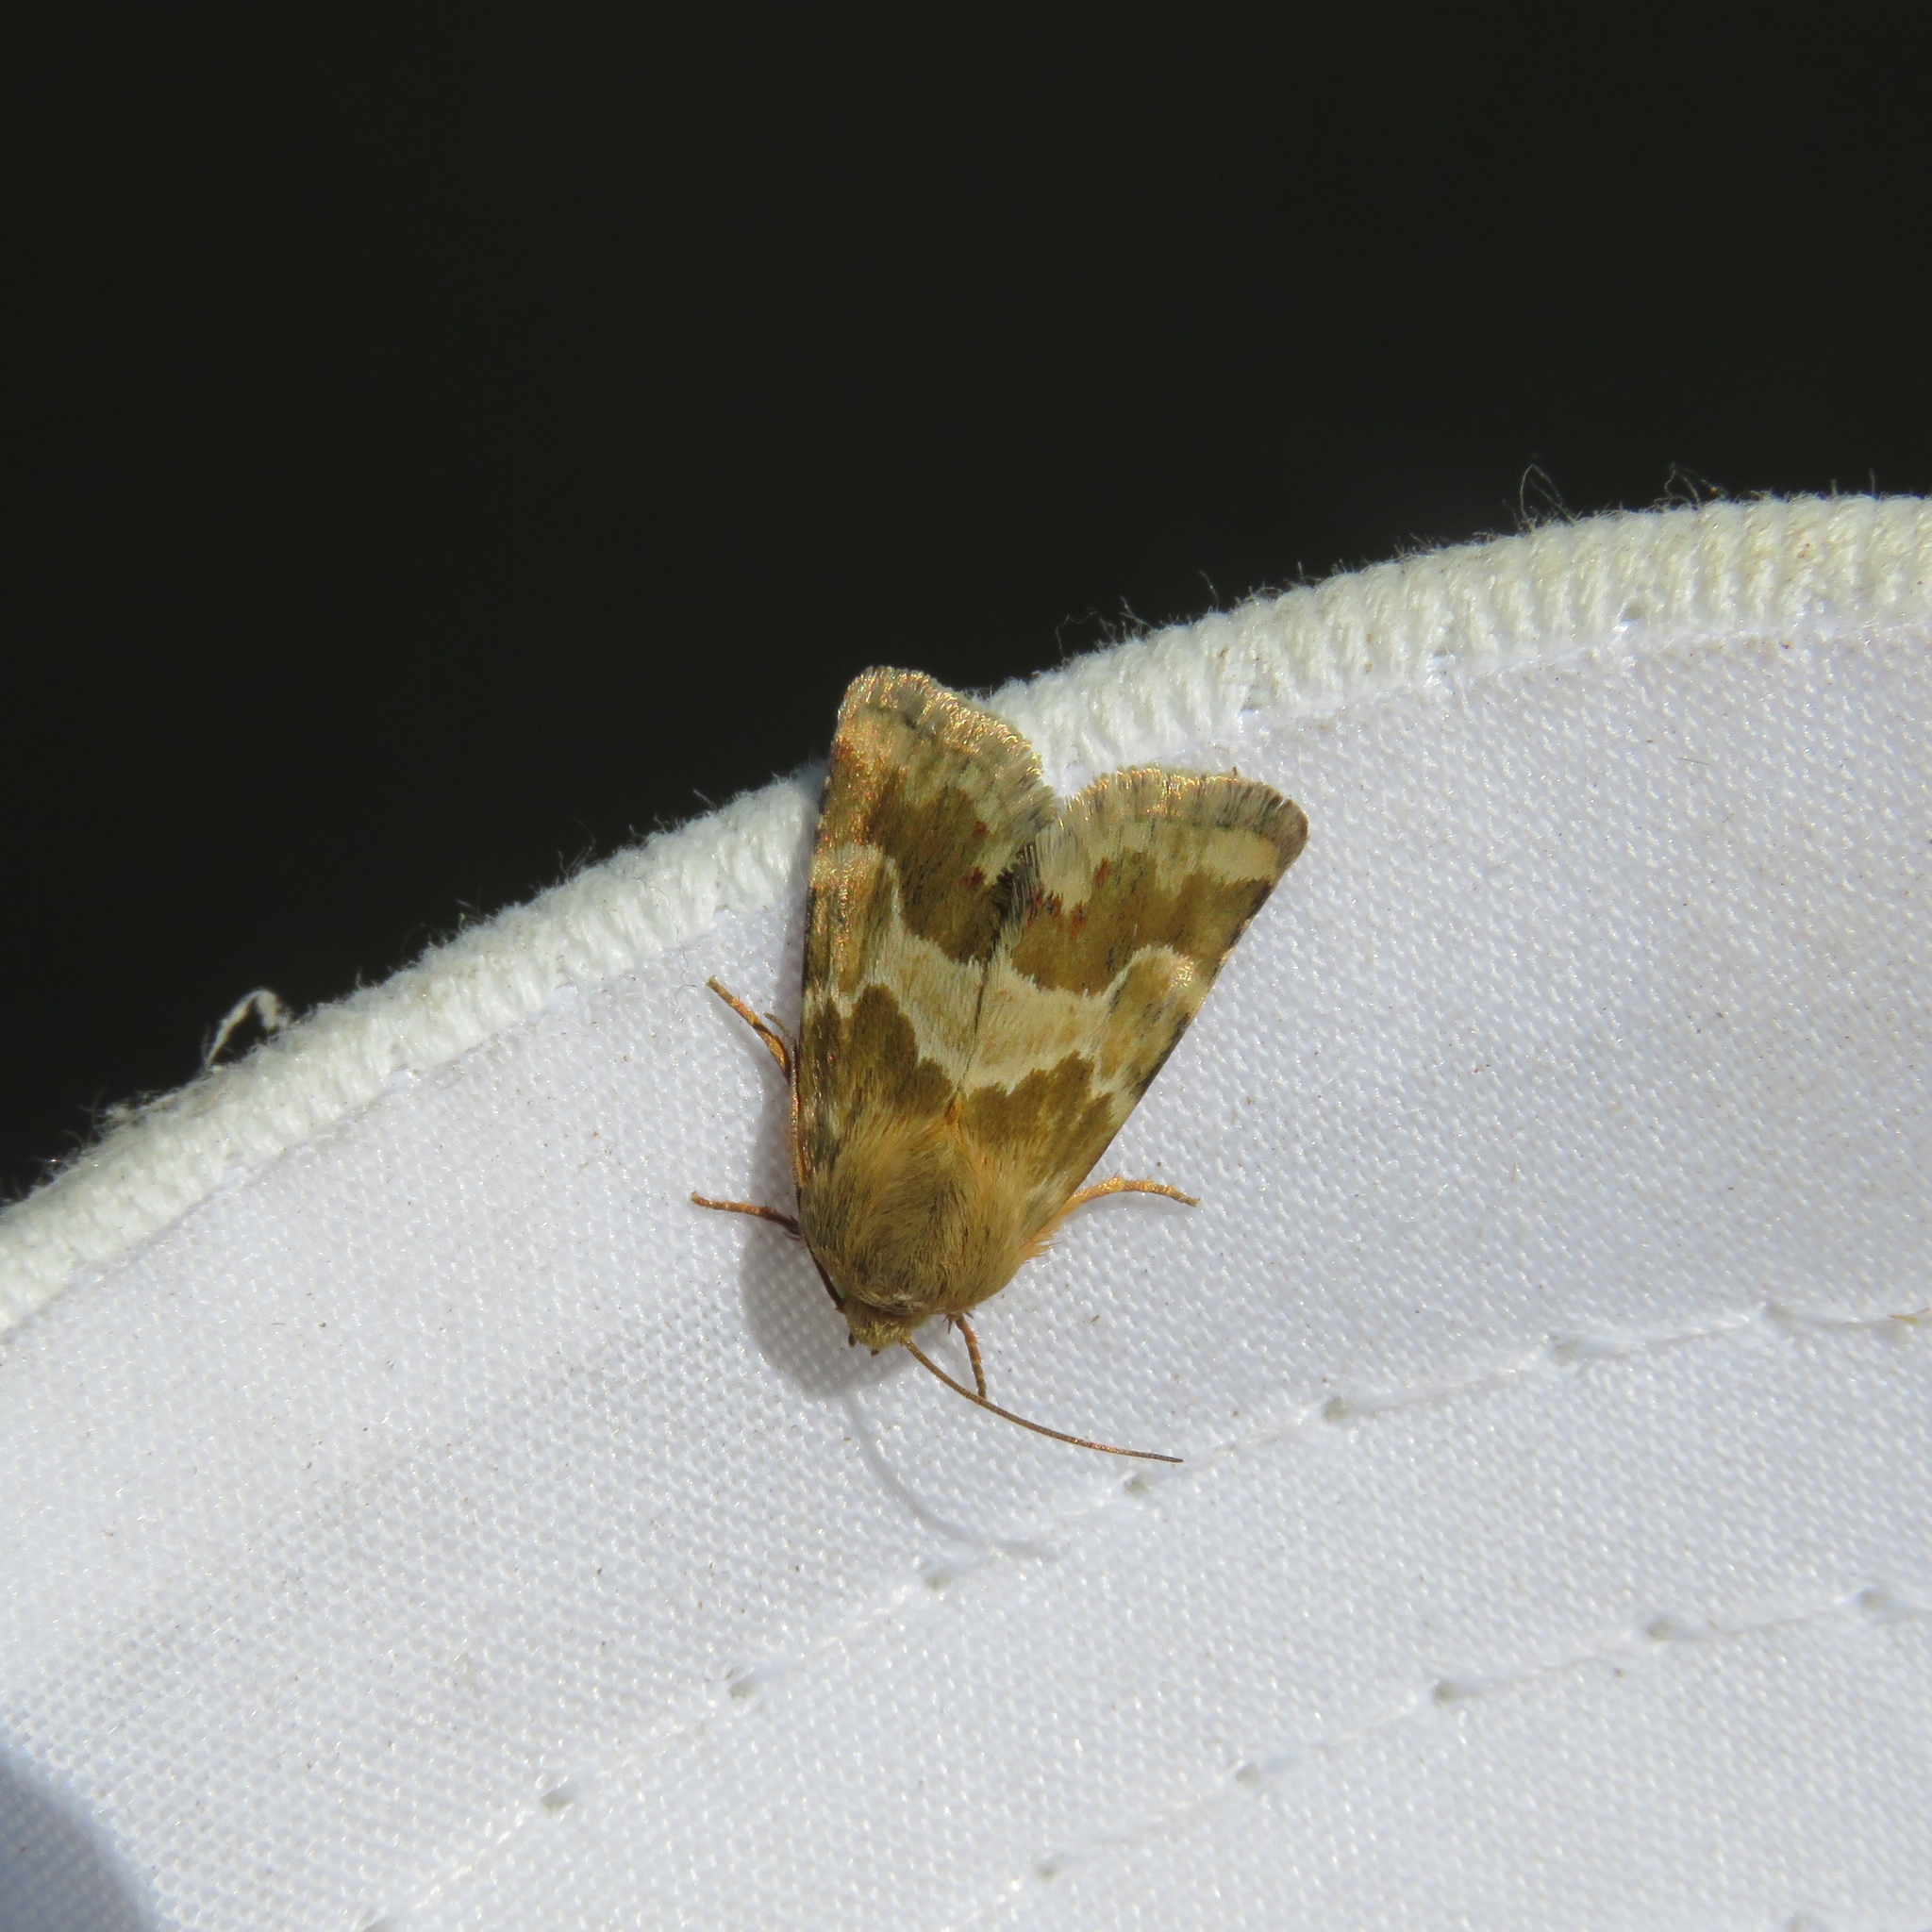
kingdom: Animalia
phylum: Arthropoda
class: Insecta
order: Lepidoptera
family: Noctuidae
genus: Schinia
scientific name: Schinia errans
